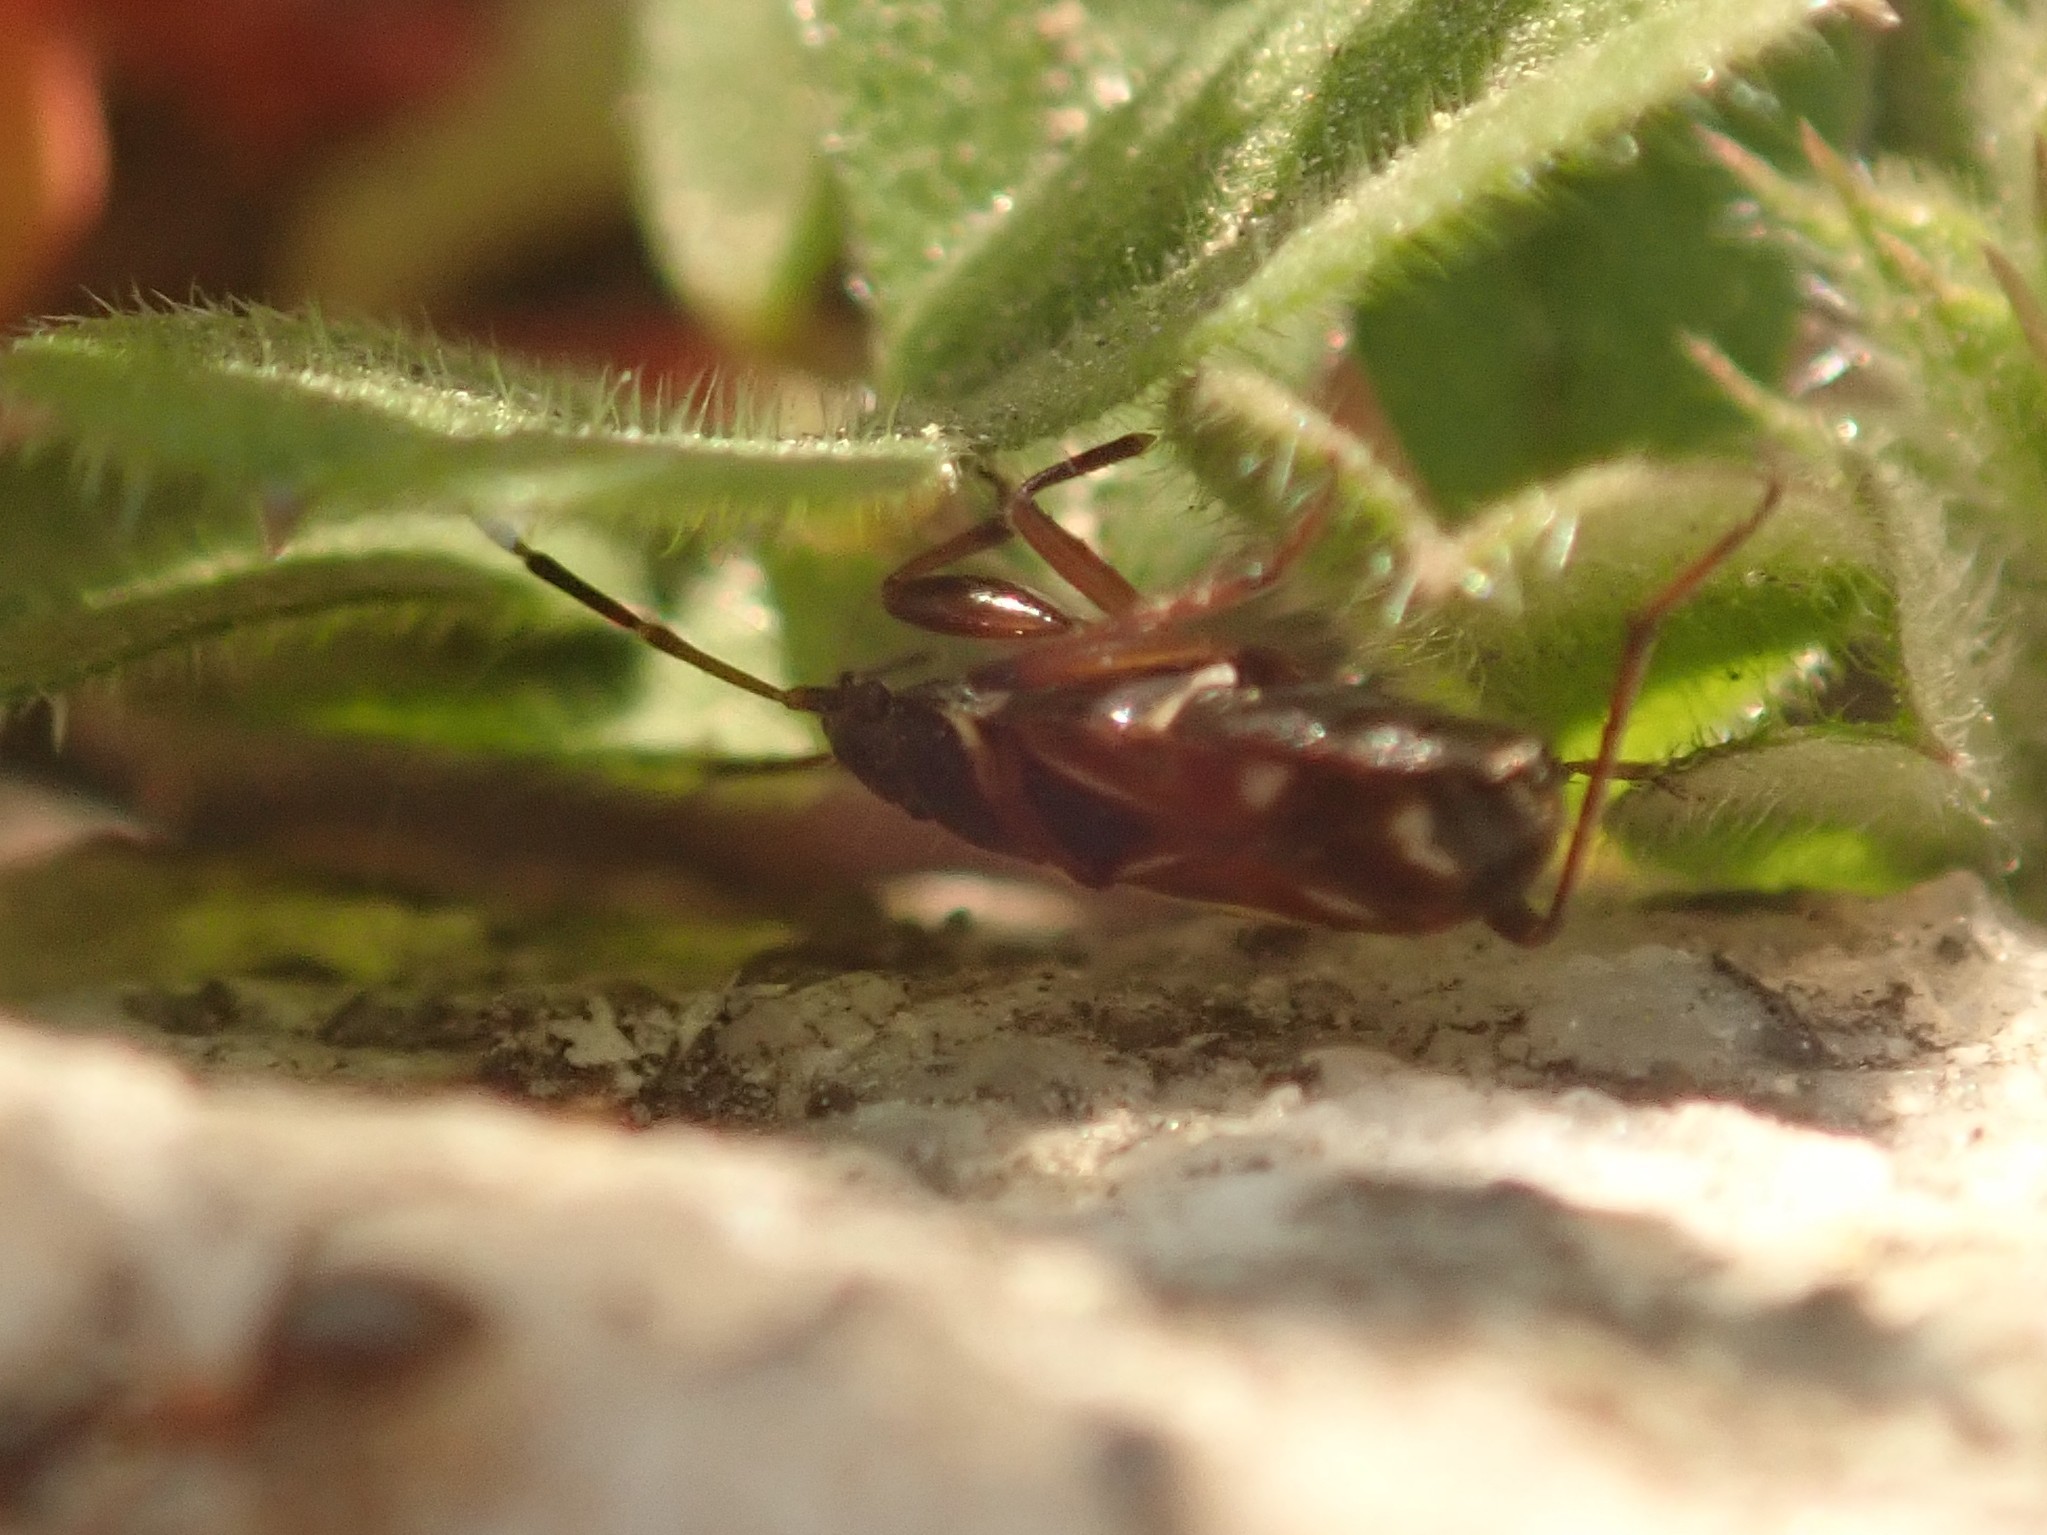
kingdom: Animalia
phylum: Arthropoda
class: Insecta
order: Hemiptera
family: Rhyparochromidae
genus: Raglius
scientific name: Raglius alboacuminatus
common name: Dirt-colored seed bug
